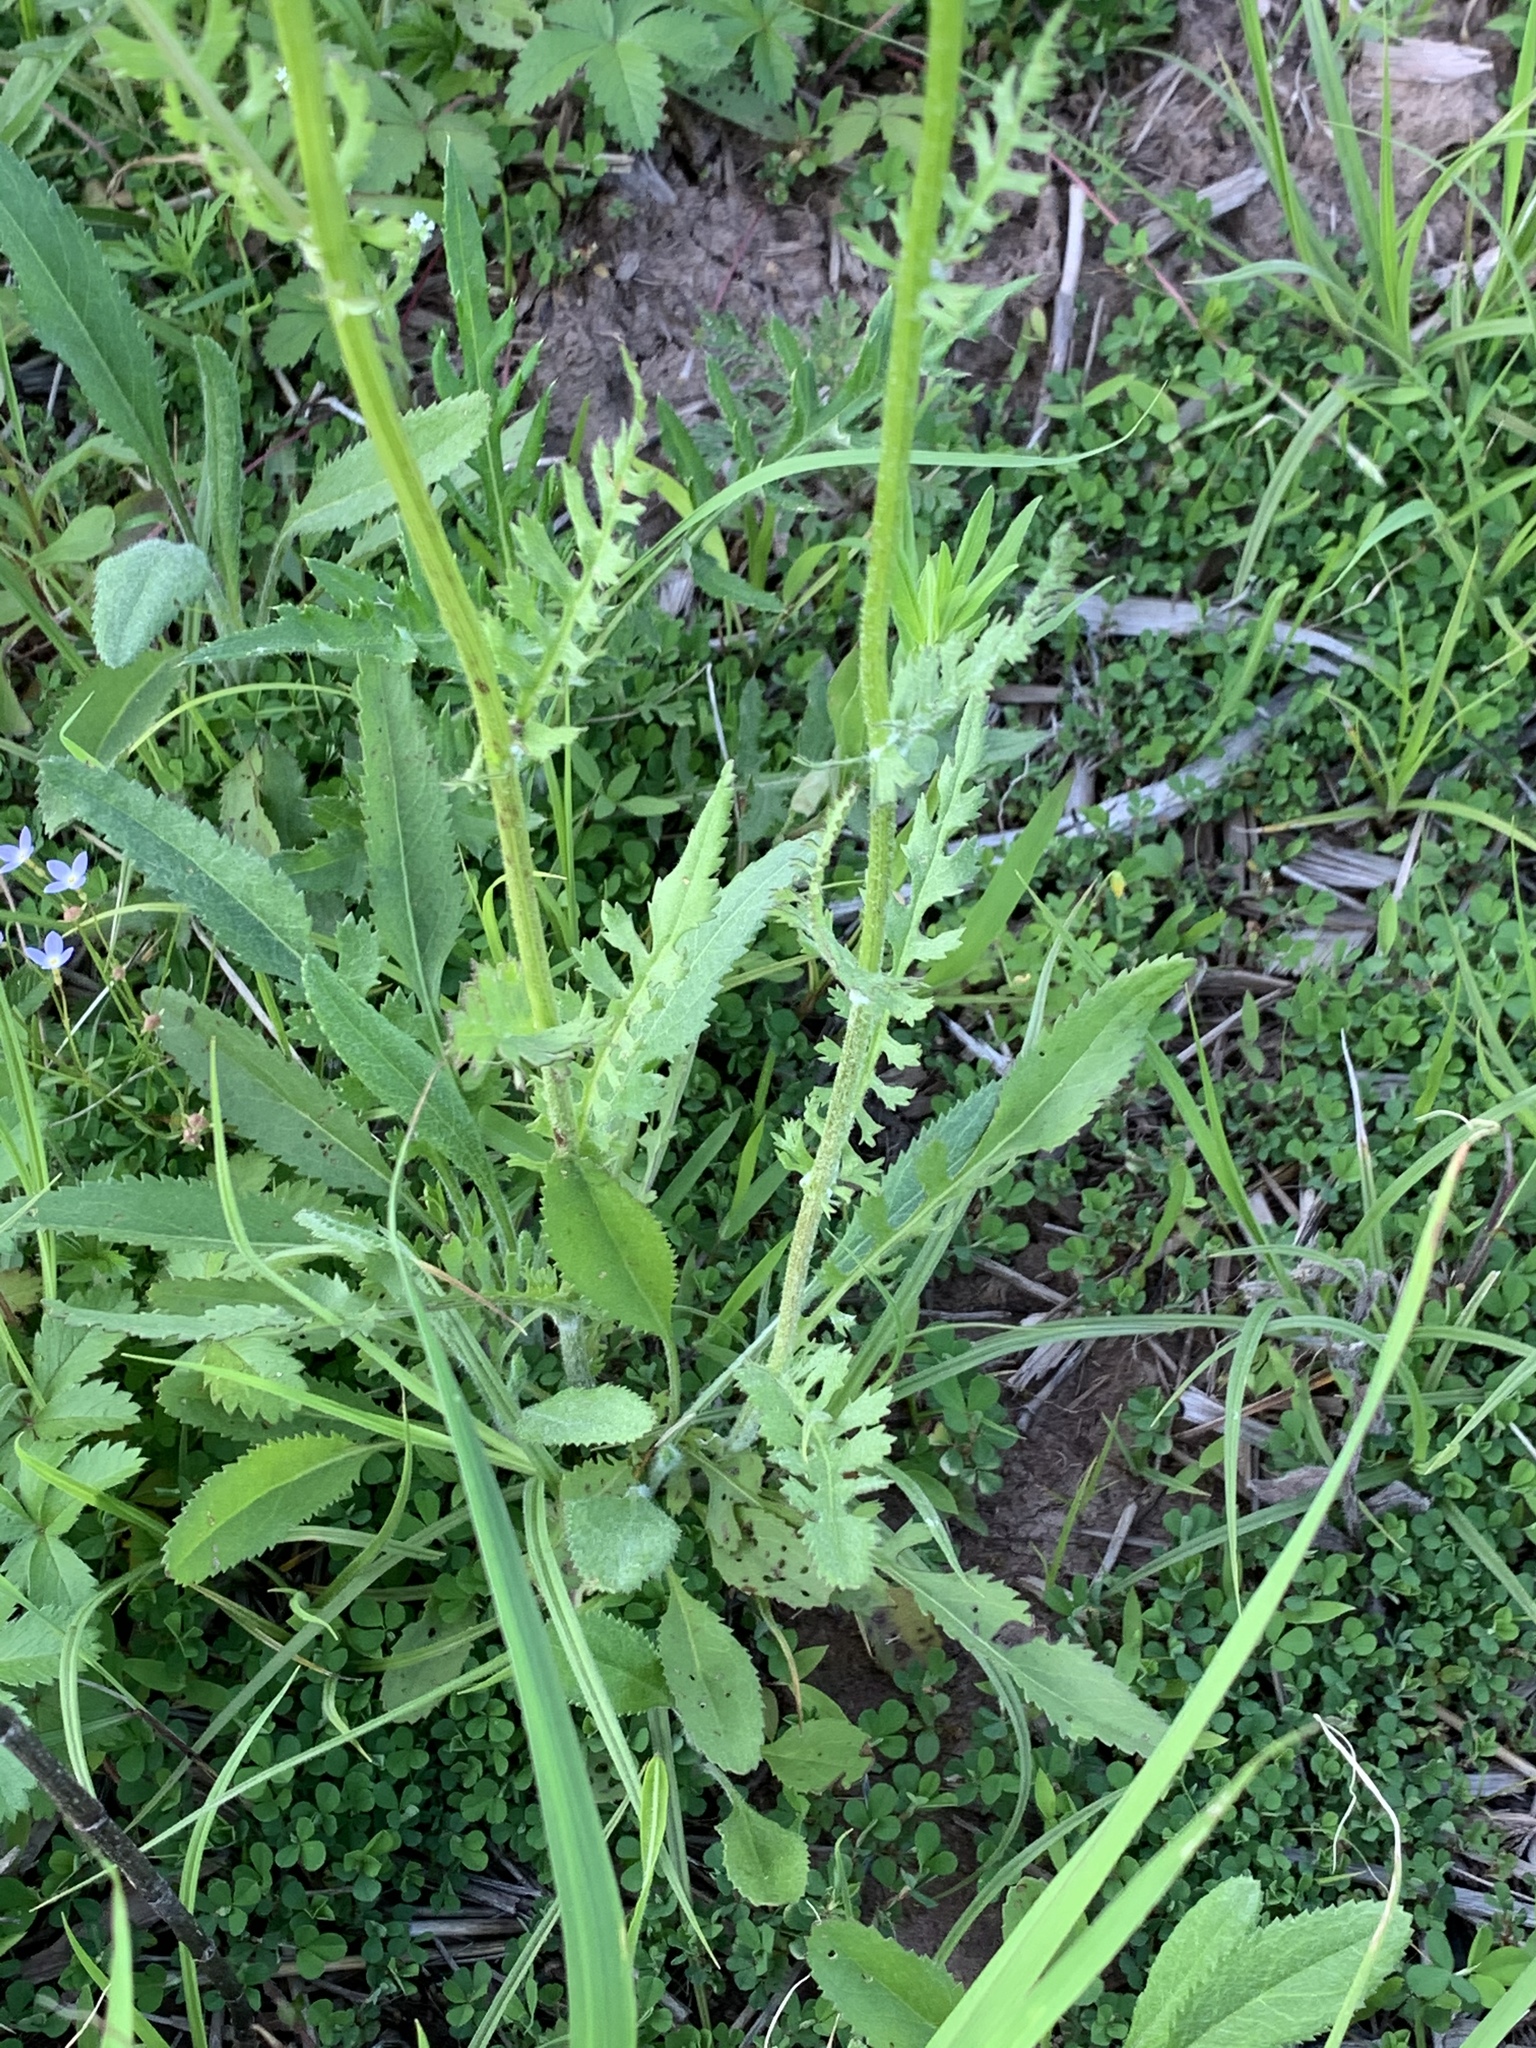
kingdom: Plantae
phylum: Tracheophyta
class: Magnoliopsida
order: Asterales
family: Asteraceae
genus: Packera
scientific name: Packera anonyma
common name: Small ragwort
